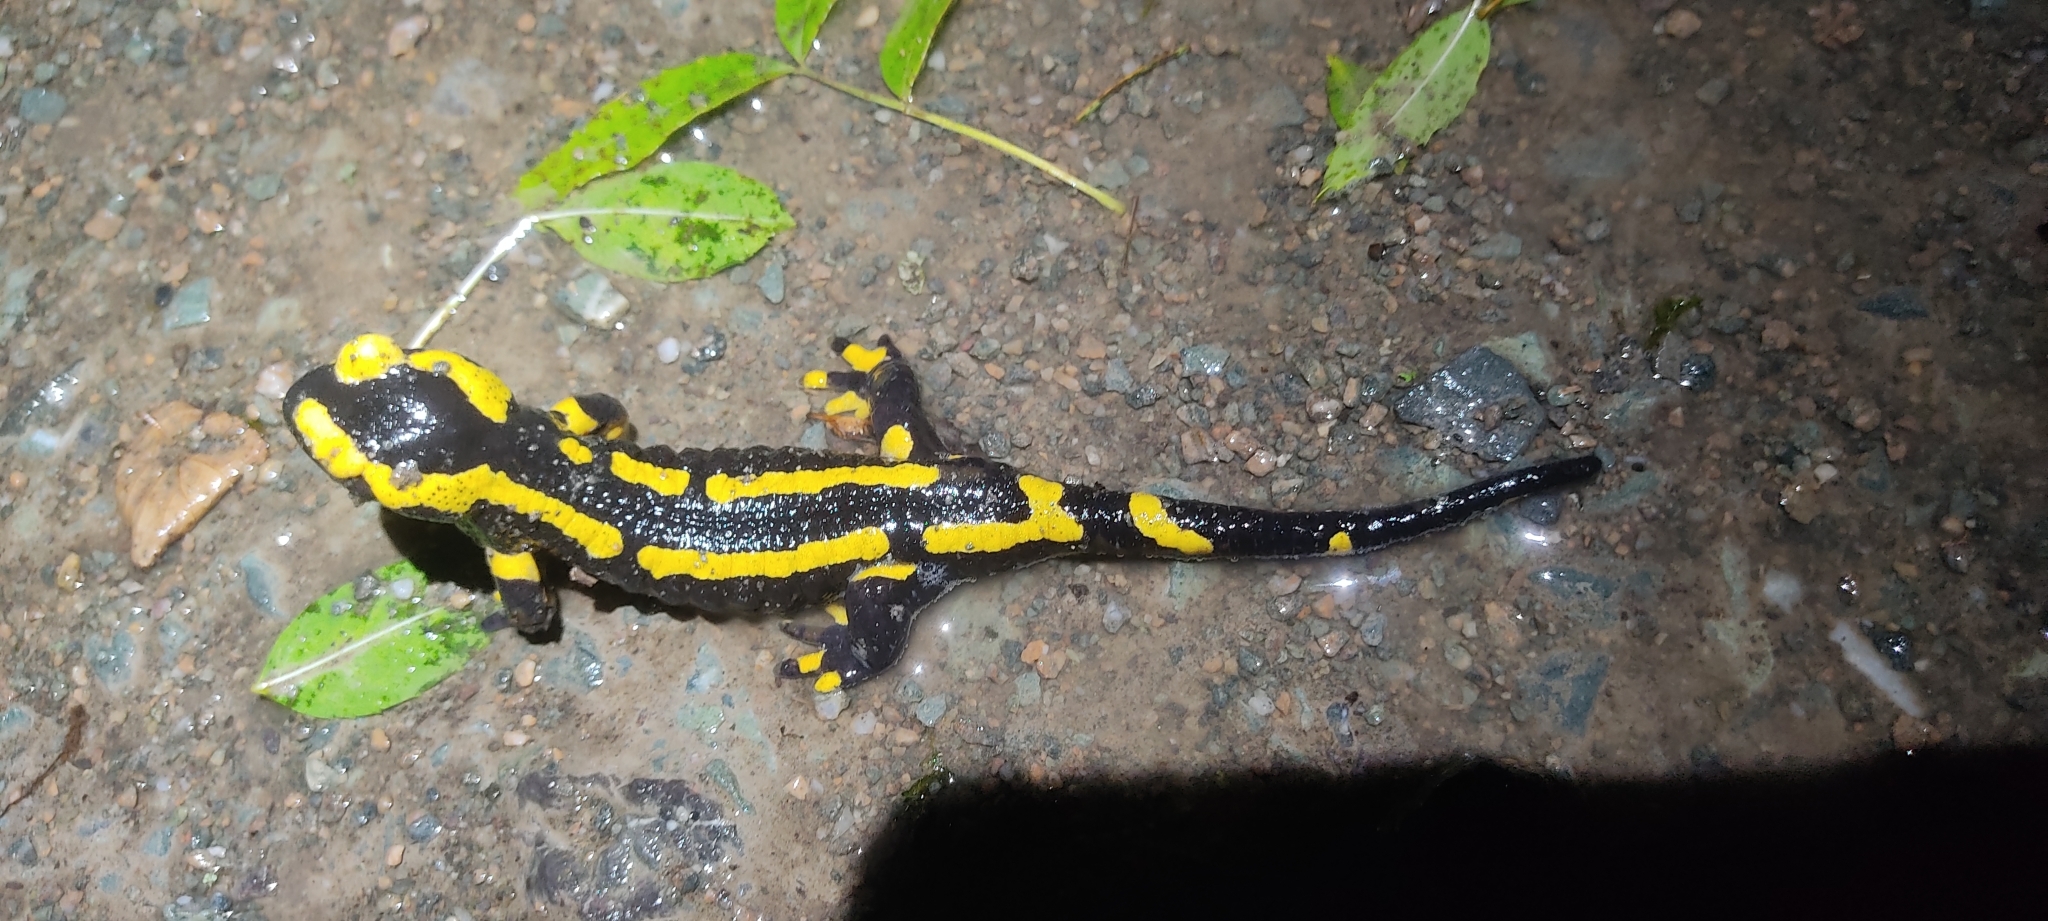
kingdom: Animalia
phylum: Chordata
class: Amphibia
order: Caudata
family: Salamandridae
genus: Salamandra
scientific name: Salamandra salamandra
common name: Fire salamander
